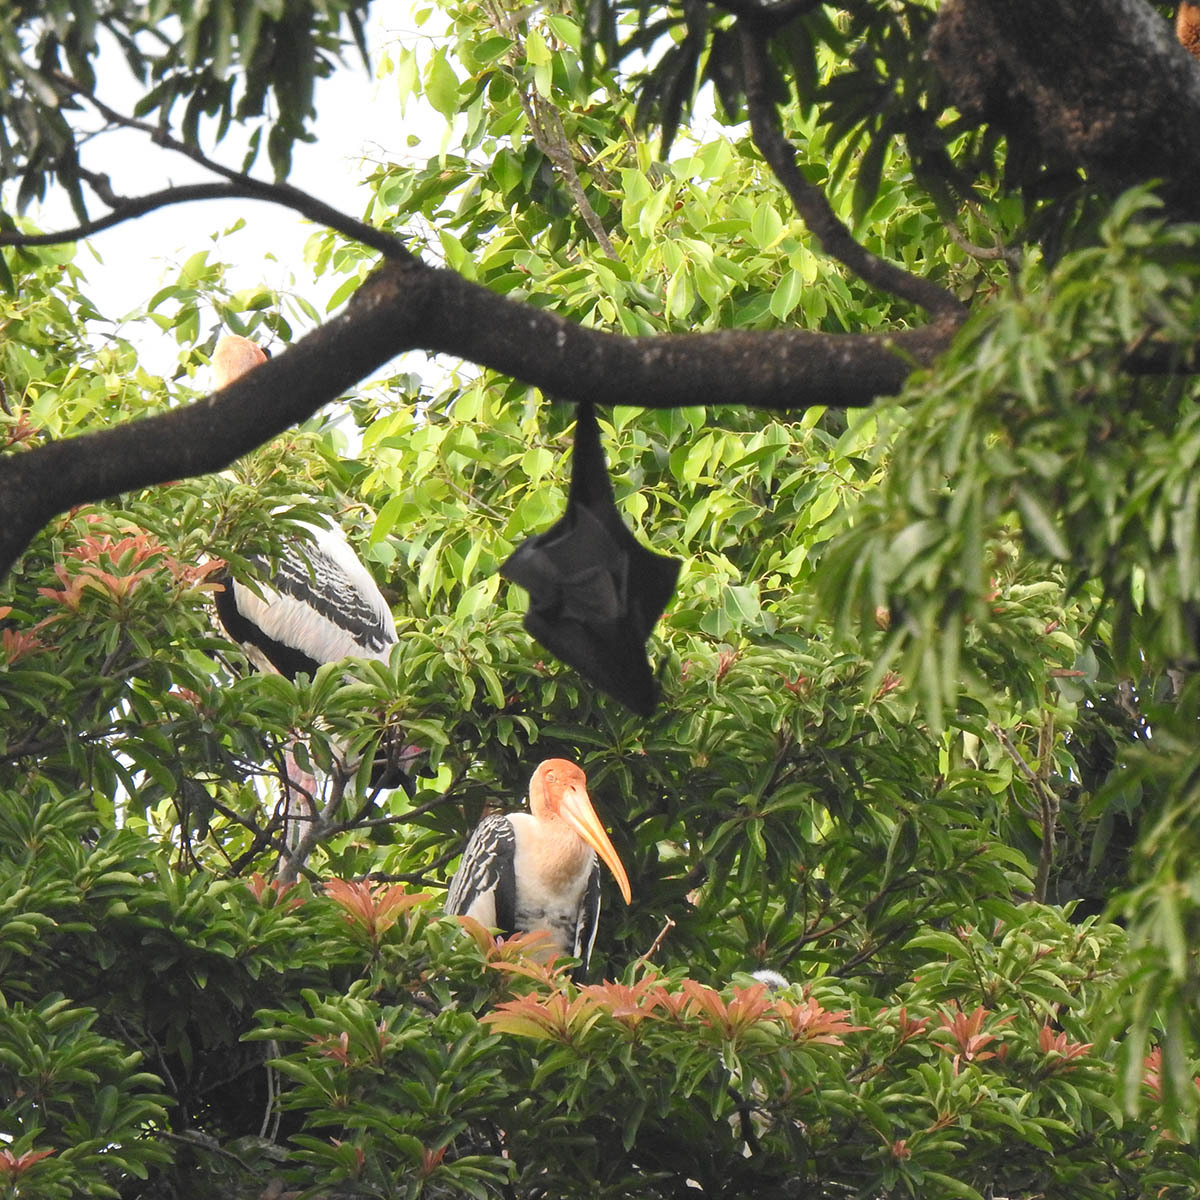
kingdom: Animalia
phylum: Chordata
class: Mammalia
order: Chiroptera
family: Pteropodidae
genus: Pteropus
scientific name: Pteropus vampyrus
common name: Large flying fox
